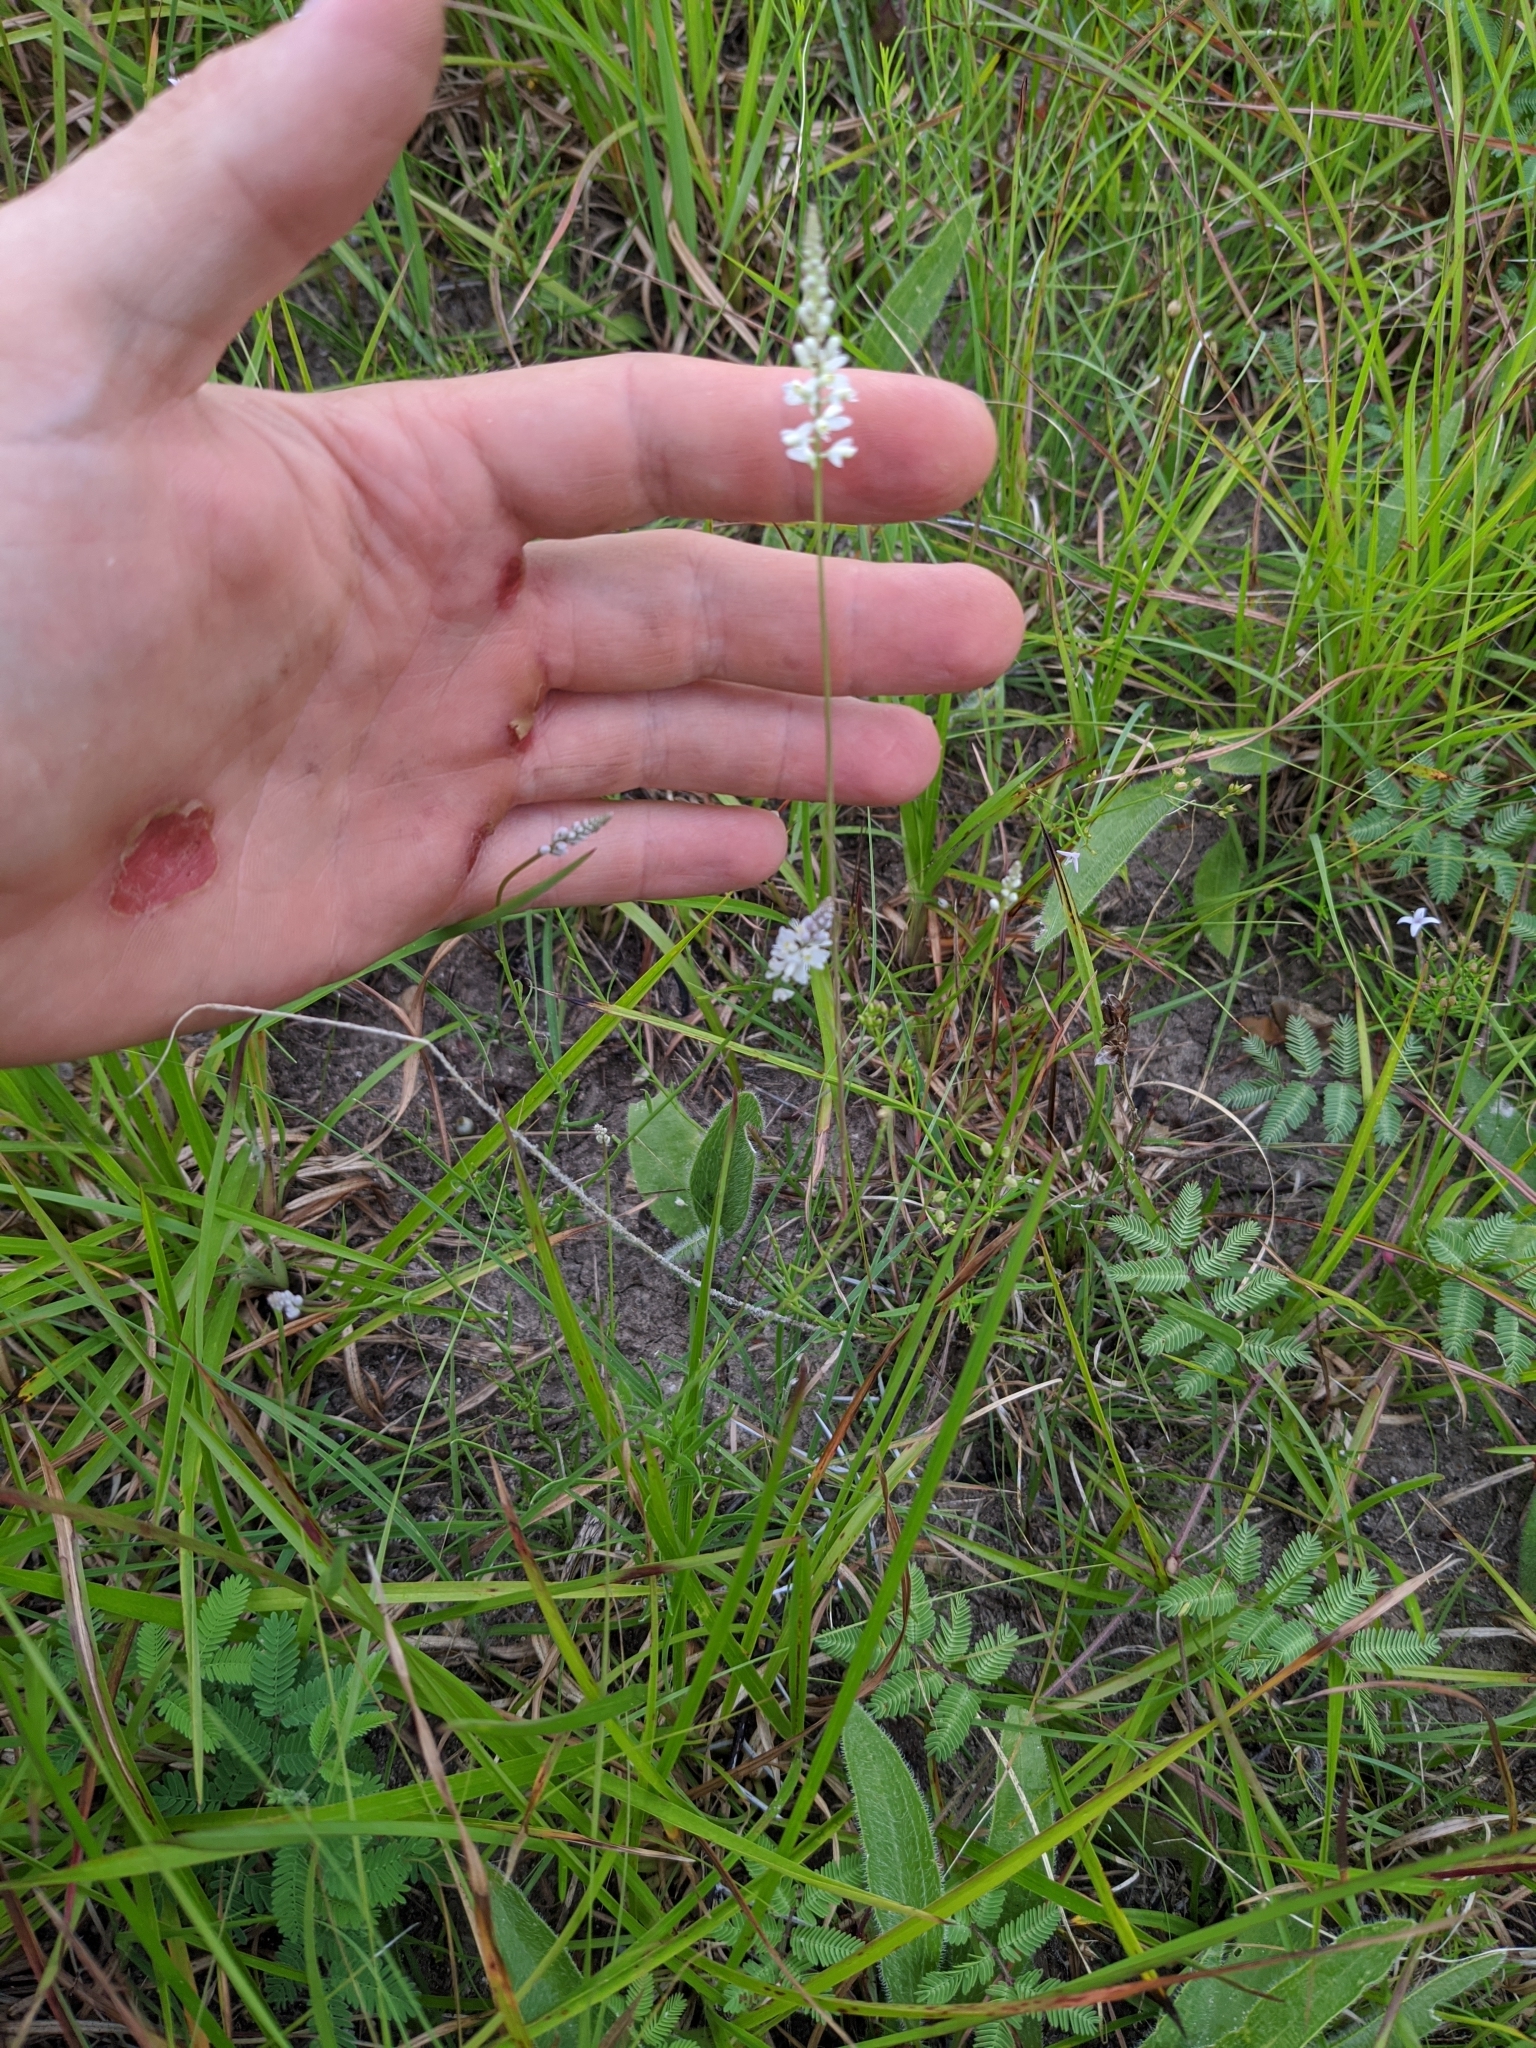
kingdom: Plantae
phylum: Tracheophyta
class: Magnoliopsida
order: Fabales
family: Polygalaceae
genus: Polygala
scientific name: Polygala alba
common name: White milkwort
